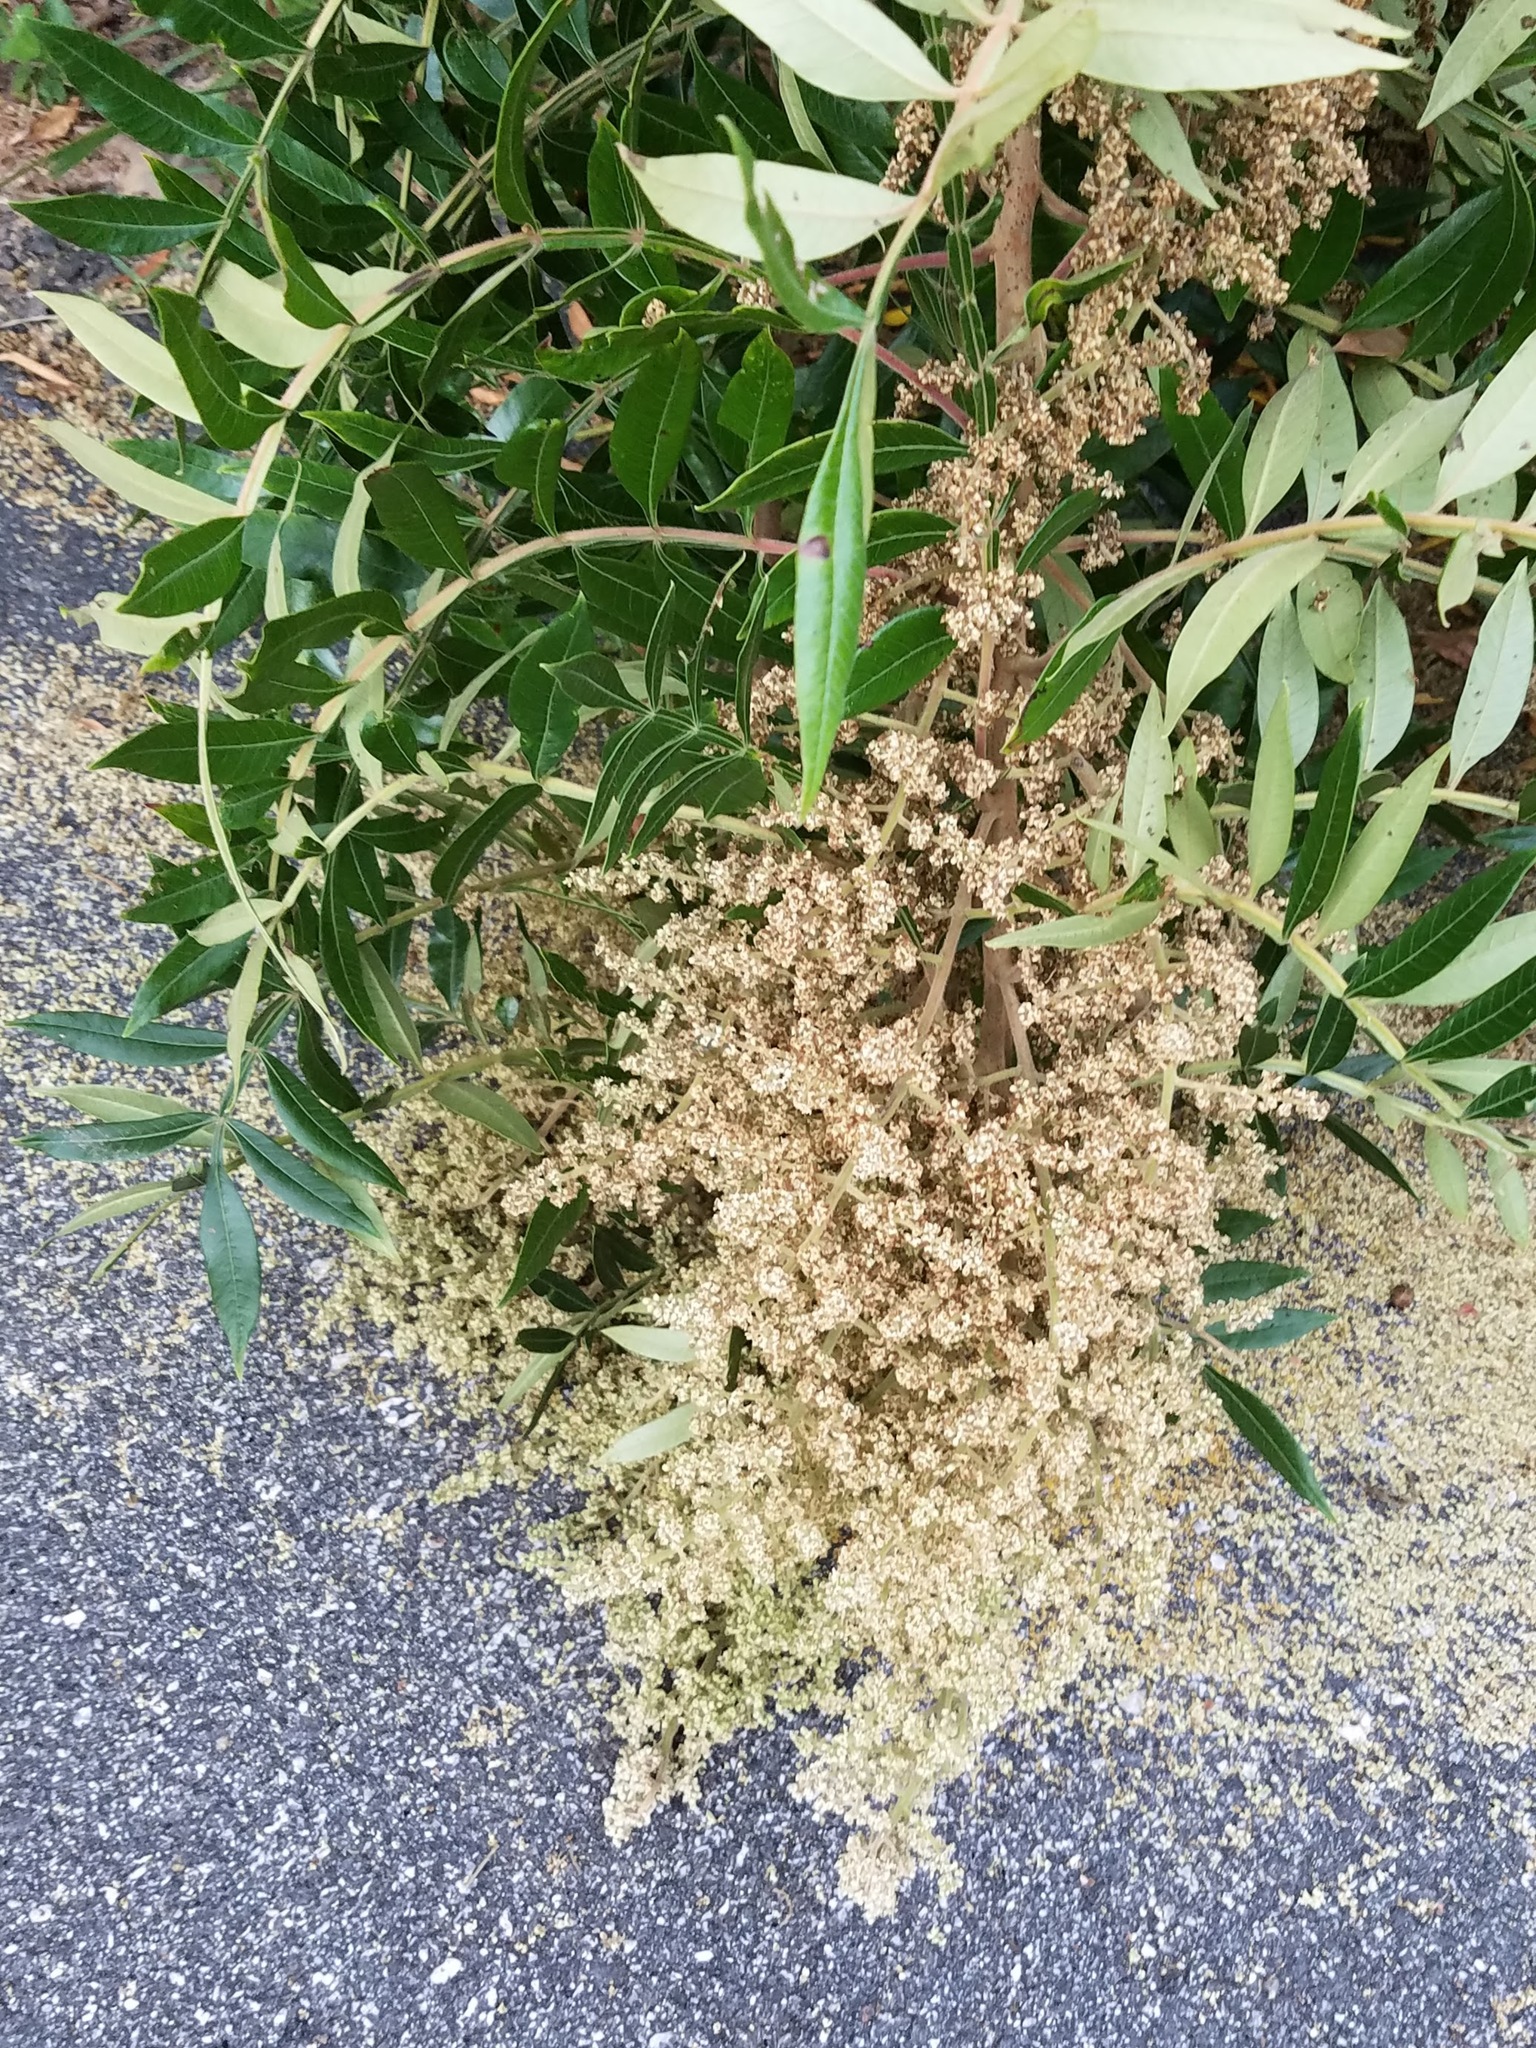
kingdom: Plantae
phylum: Tracheophyta
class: Magnoliopsida
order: Sapindales
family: Anacardiaceae
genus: Rhus
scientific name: Rhus copallina
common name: Shining sumac
